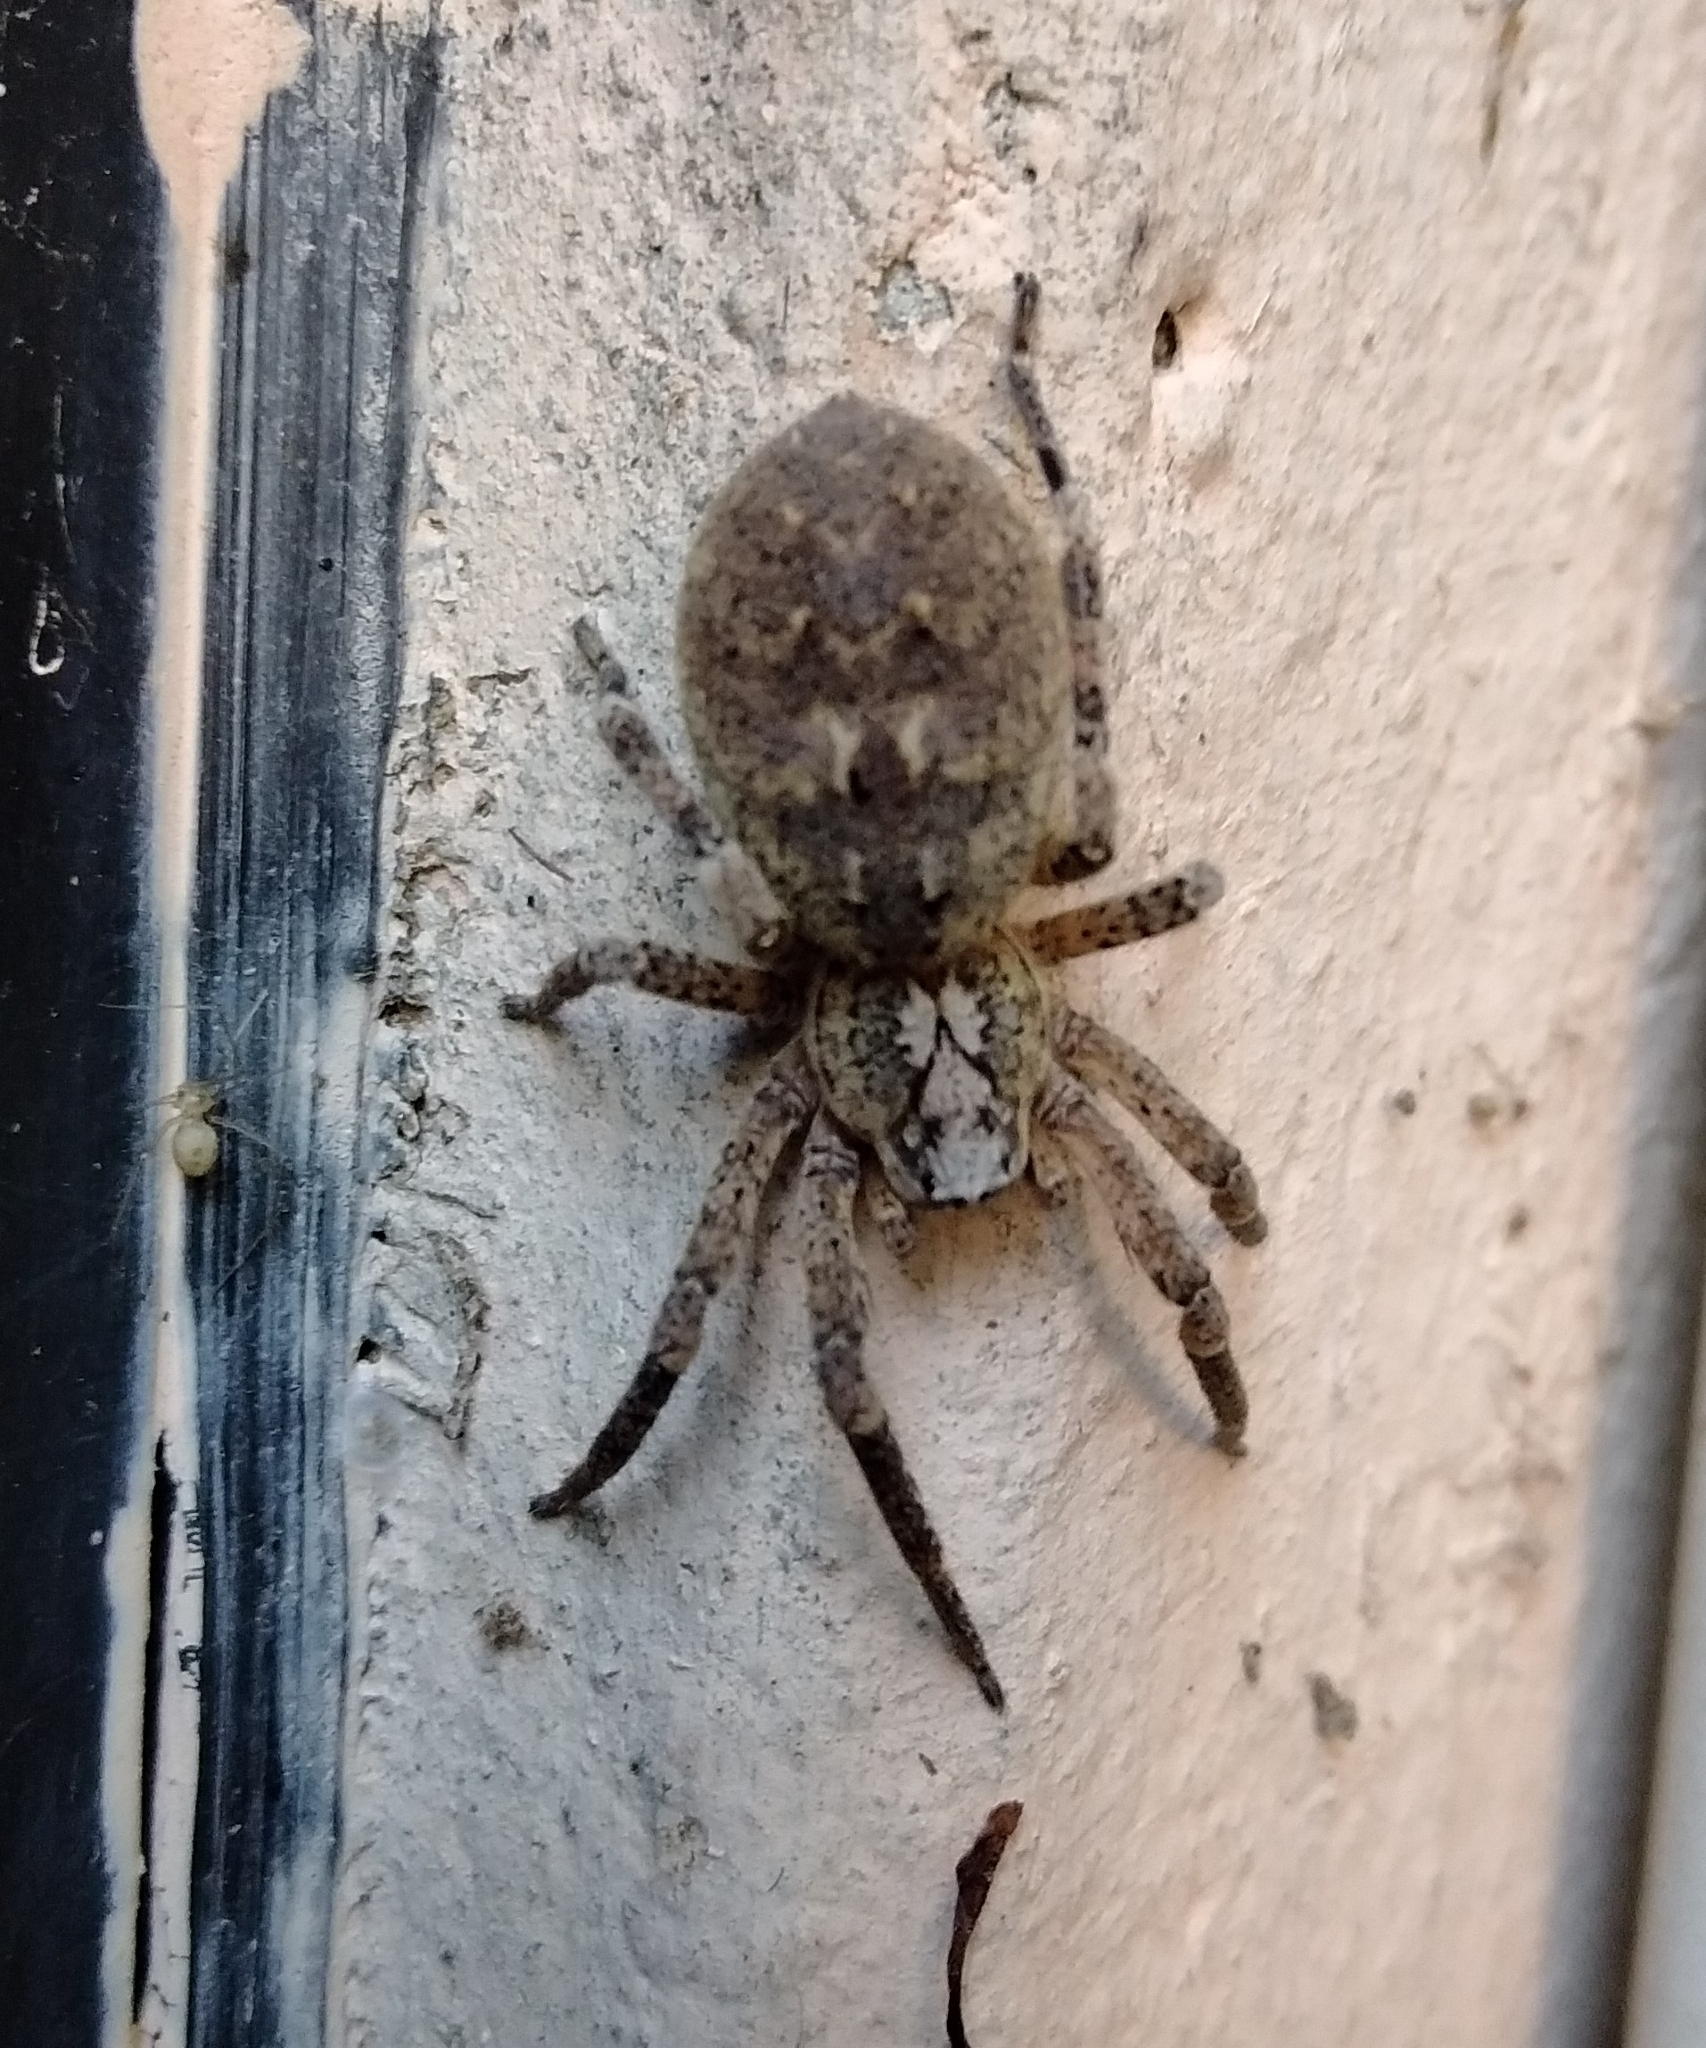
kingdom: Animalia
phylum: Arthropoda
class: Arachnida
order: Araneae
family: Zoropsidae
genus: Zoropsis
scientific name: Zoropsis spinimana
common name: Zoropsid spider
